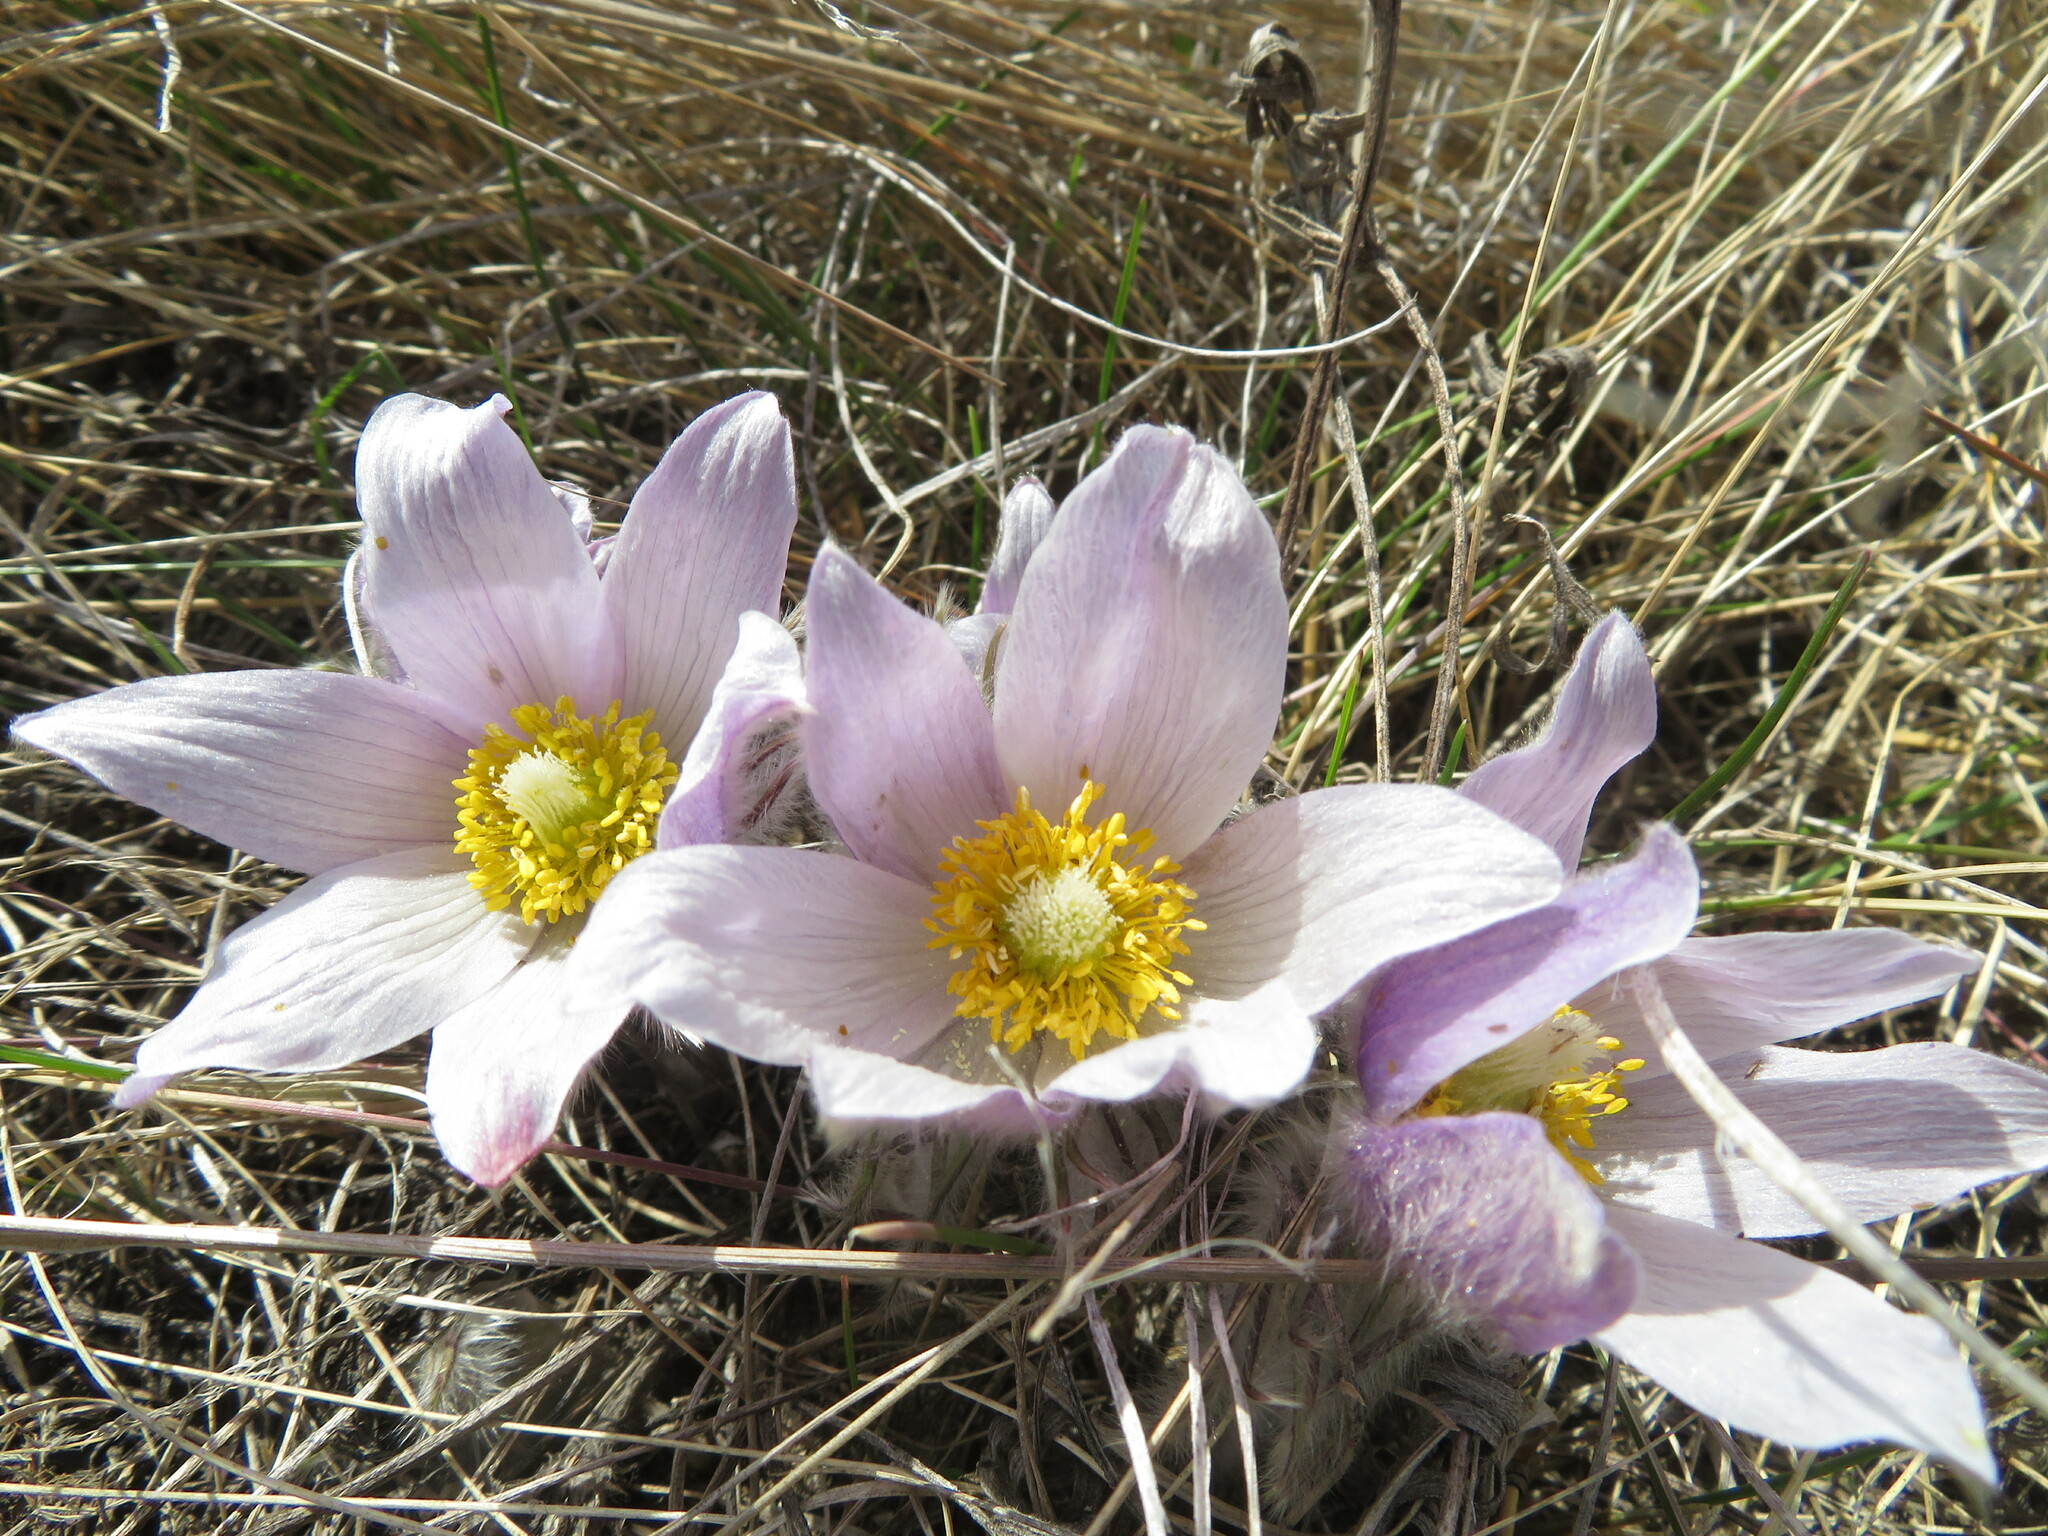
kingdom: Plantae
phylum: Tracheophyta
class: Magnoliopsida
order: Ranunculales
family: Ranunculaceae
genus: Pulsatilla
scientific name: Pulsatilla nuttalliana
